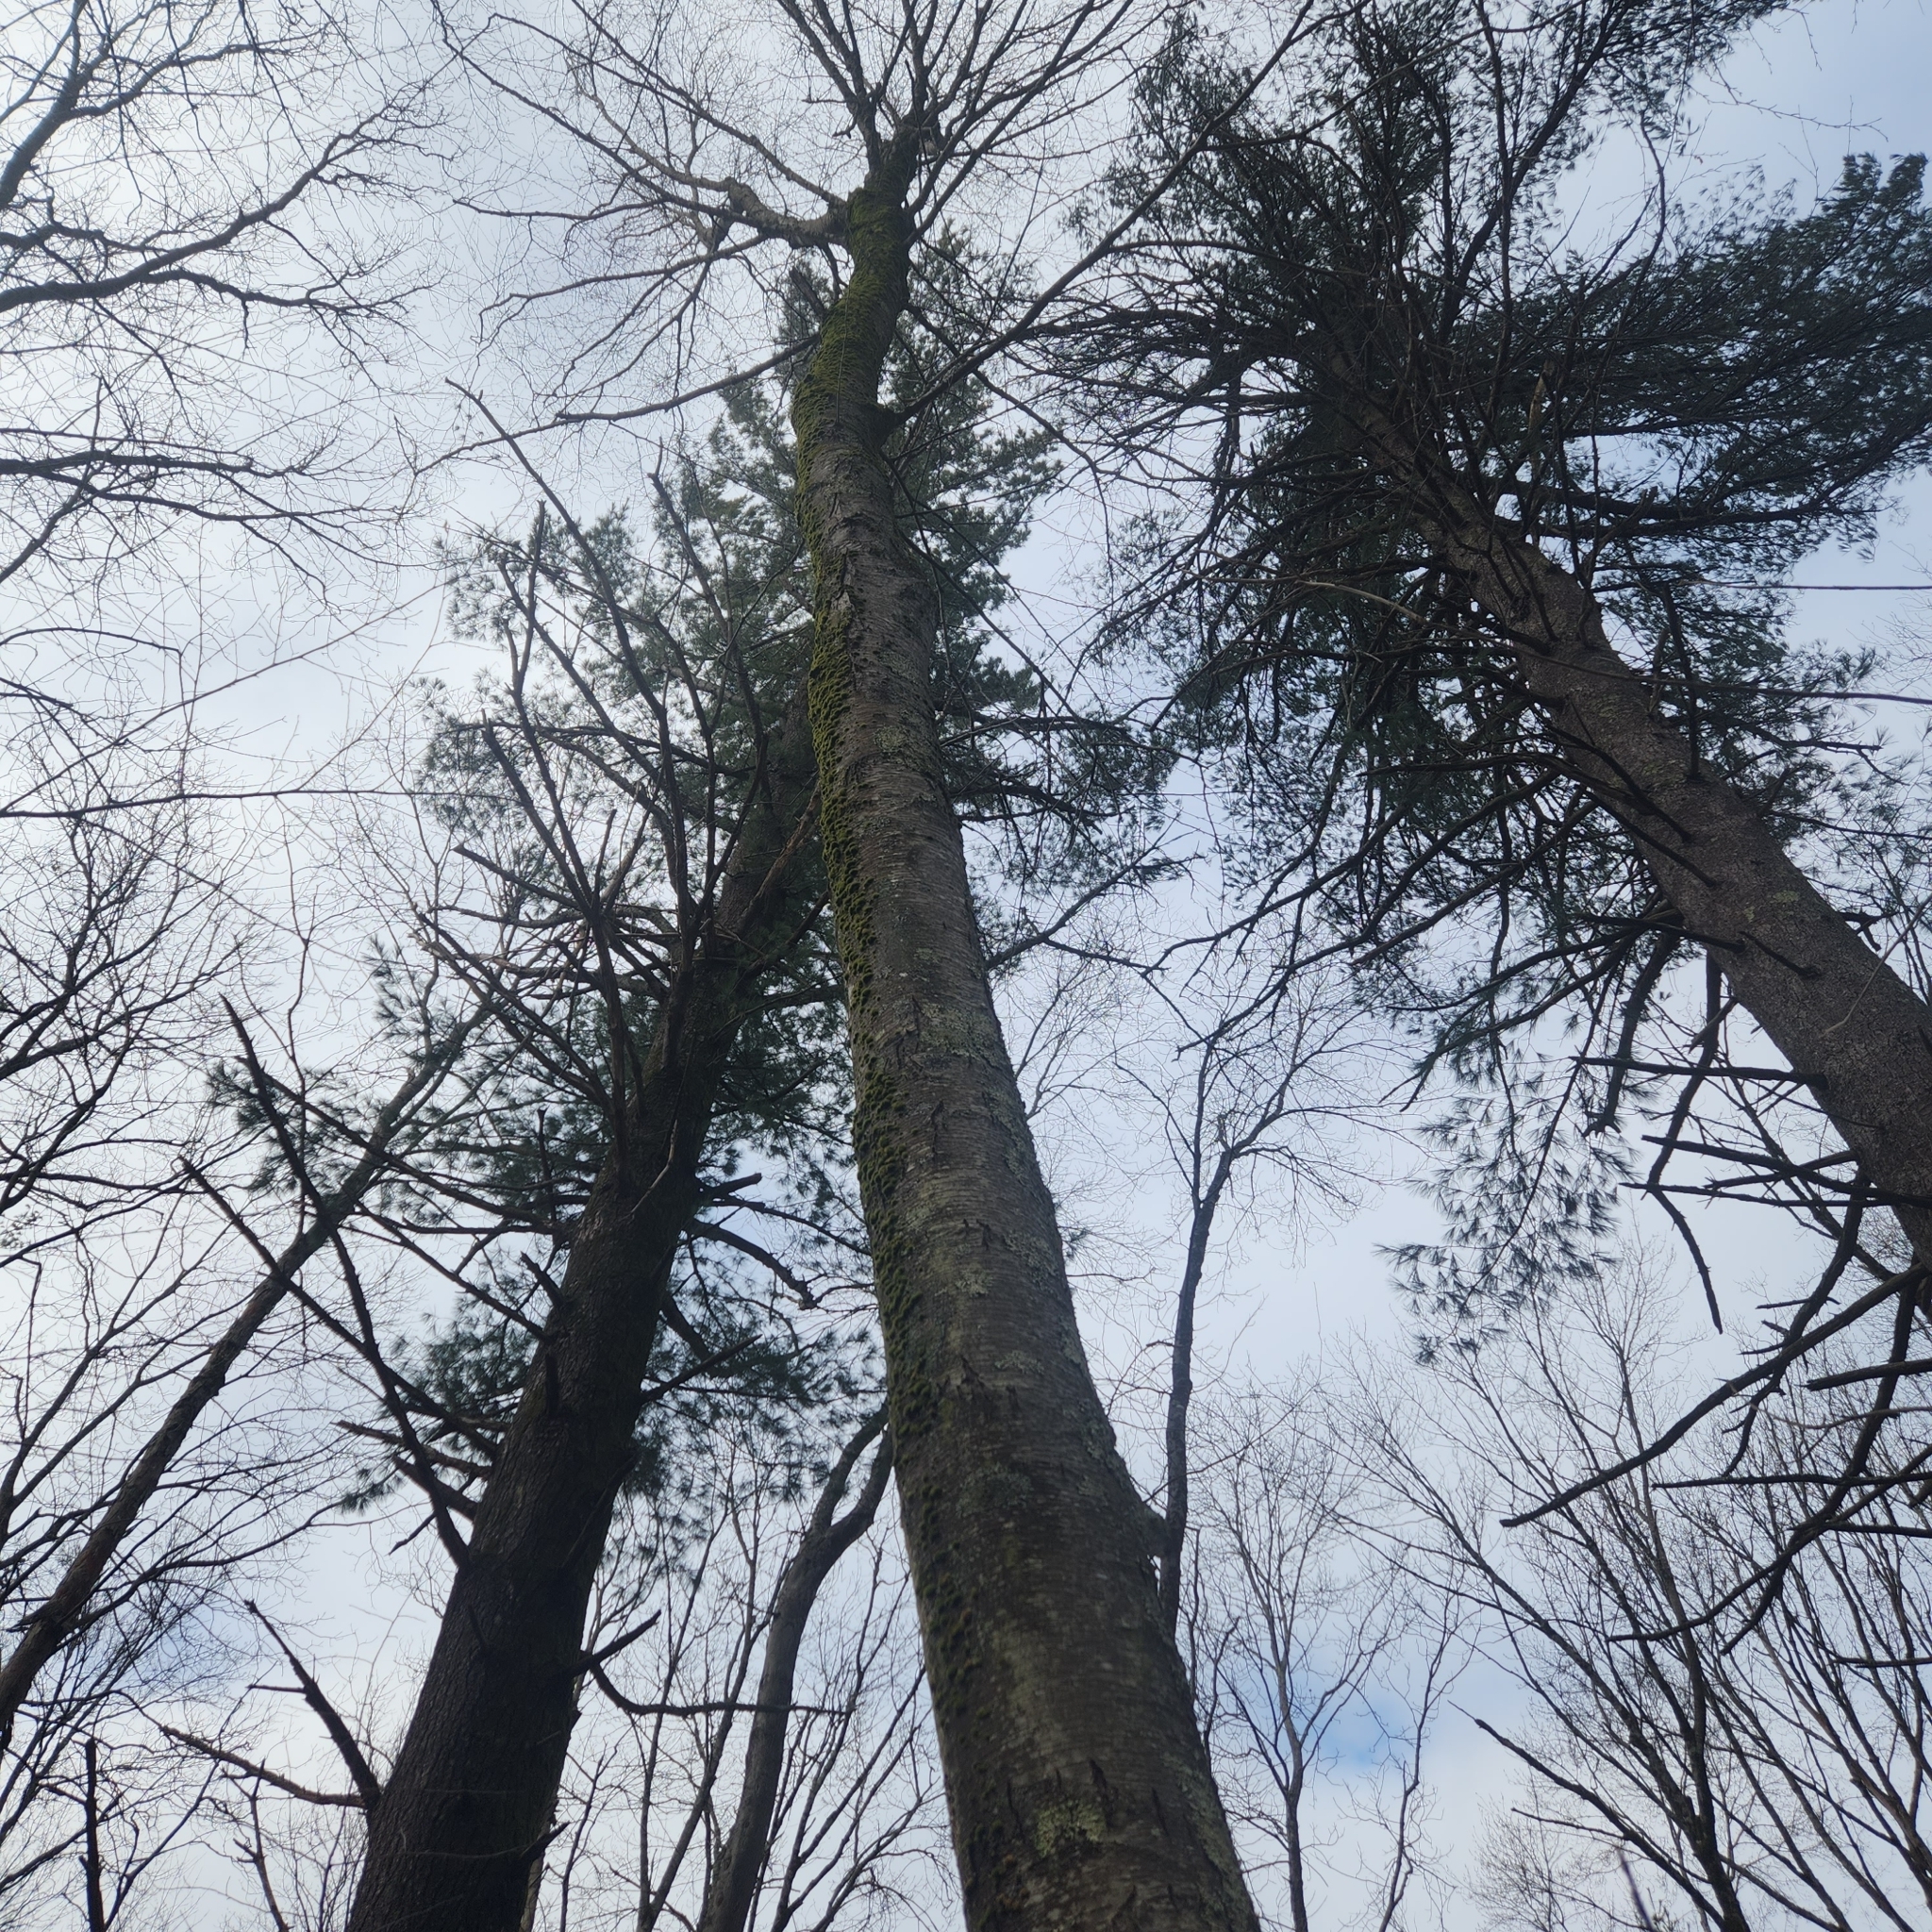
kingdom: Plantae
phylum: Tracheophyta
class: Magnoliopsida
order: Fagales
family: Betulaceae
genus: Betula
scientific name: Betula lenta
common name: Black birch
